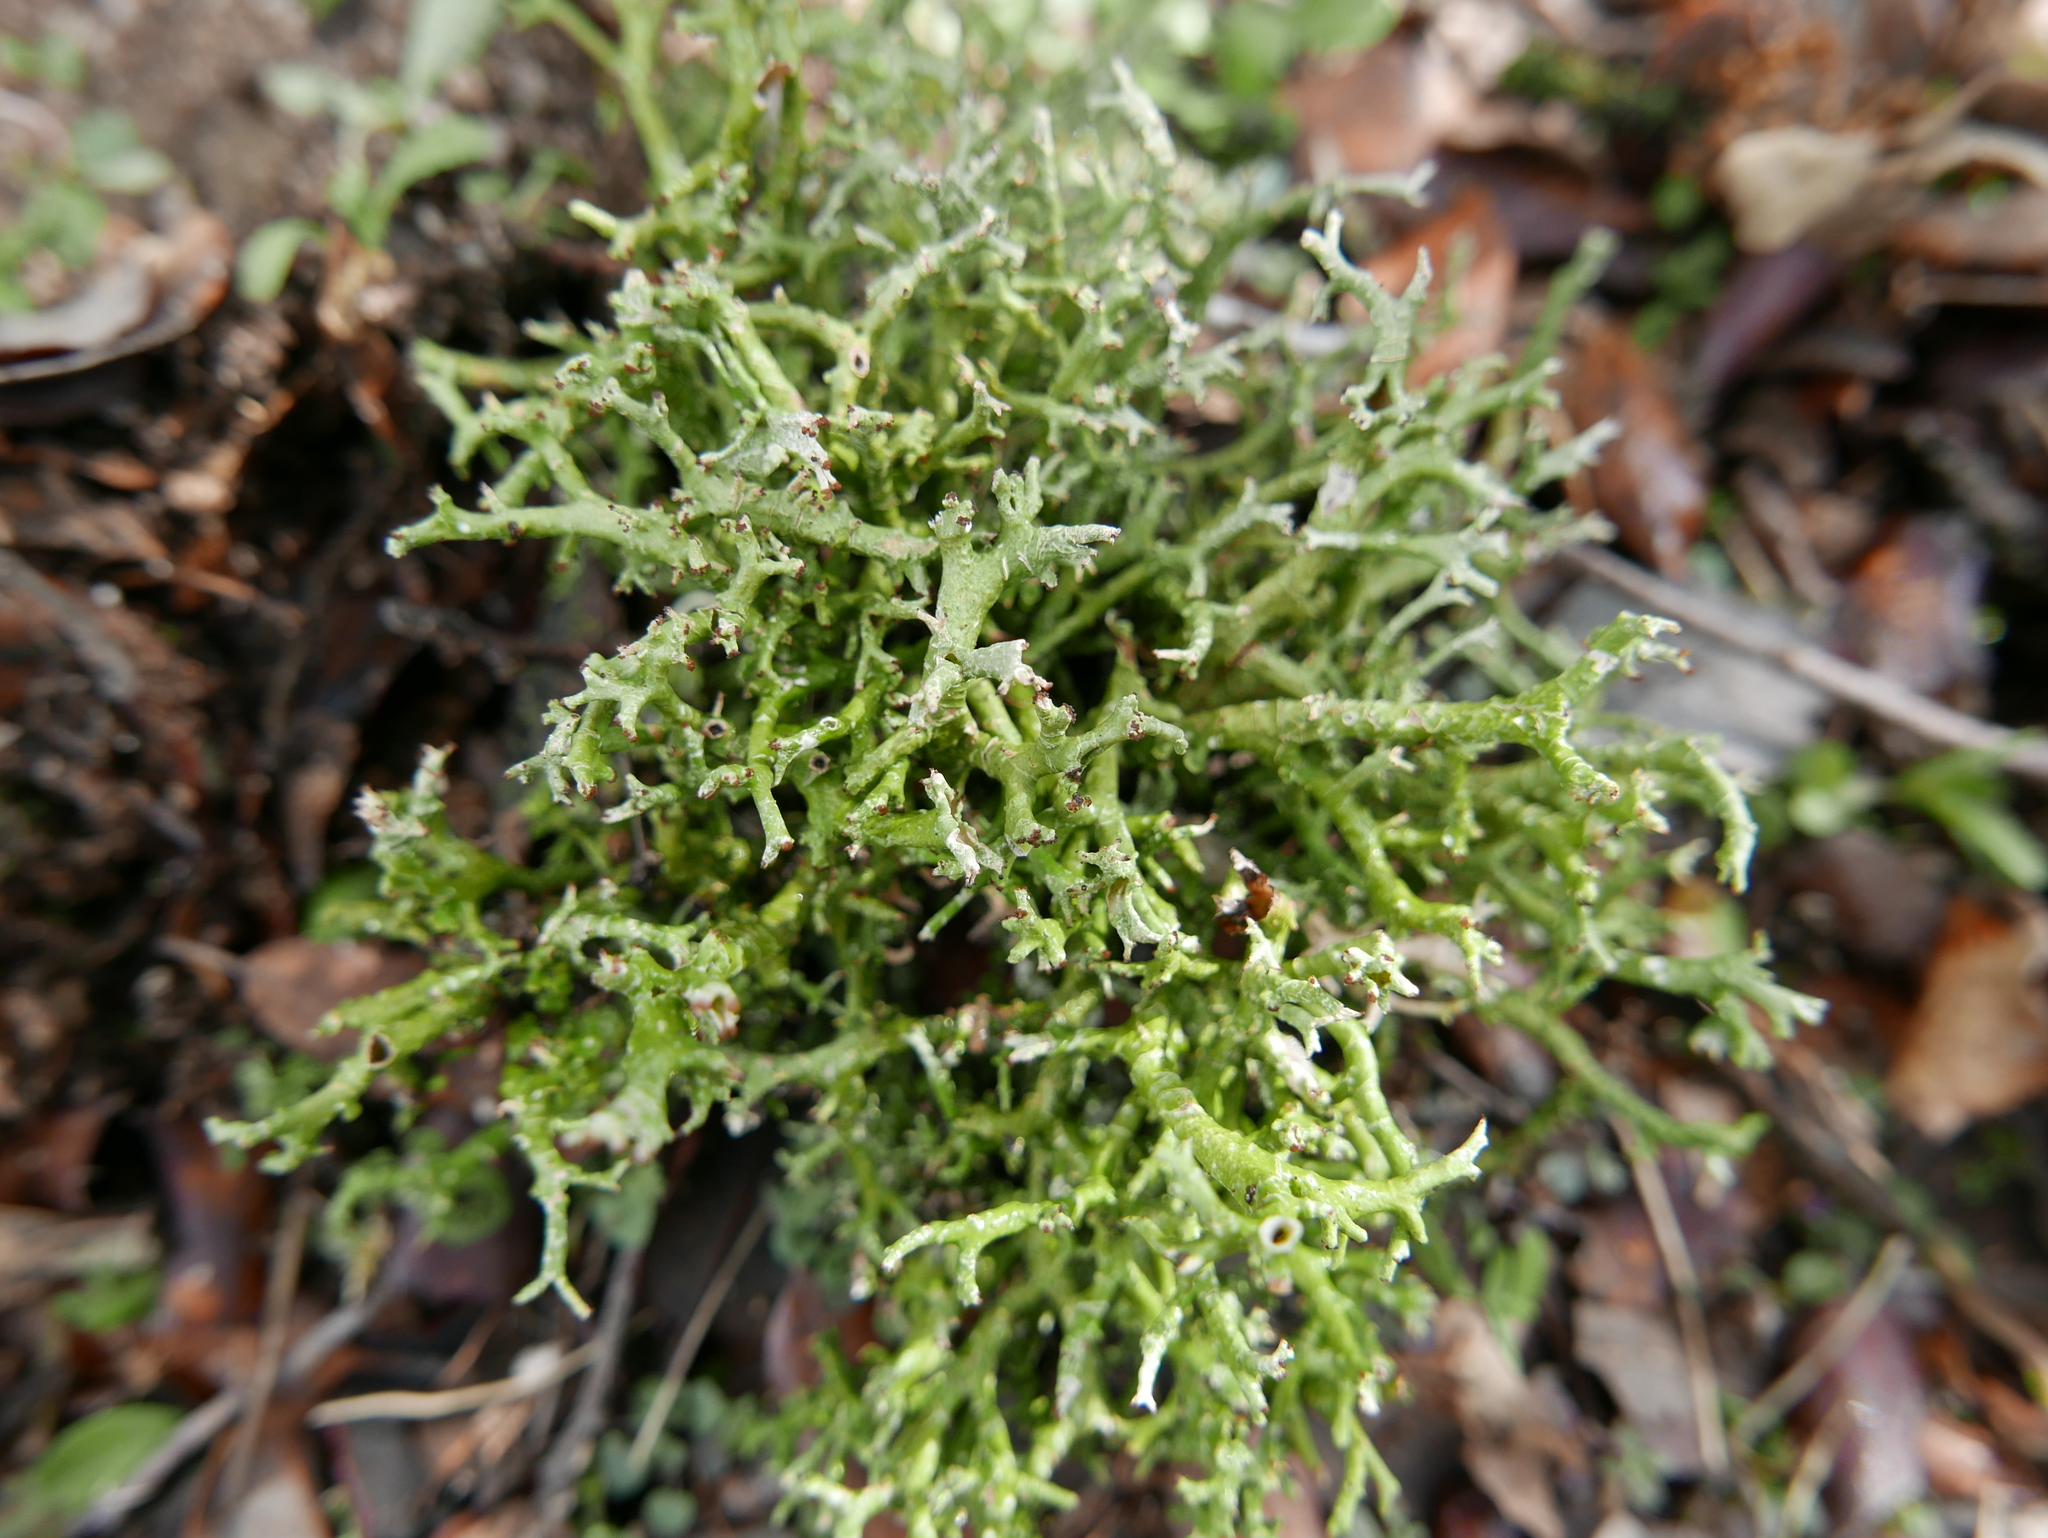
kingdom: Fungi
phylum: Ascomycota
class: Lecanoromycetes
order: Lecanorales
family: Cladoniaceae
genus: Cladonia
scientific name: Cladonia furcata
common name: Many-forked cladonia
